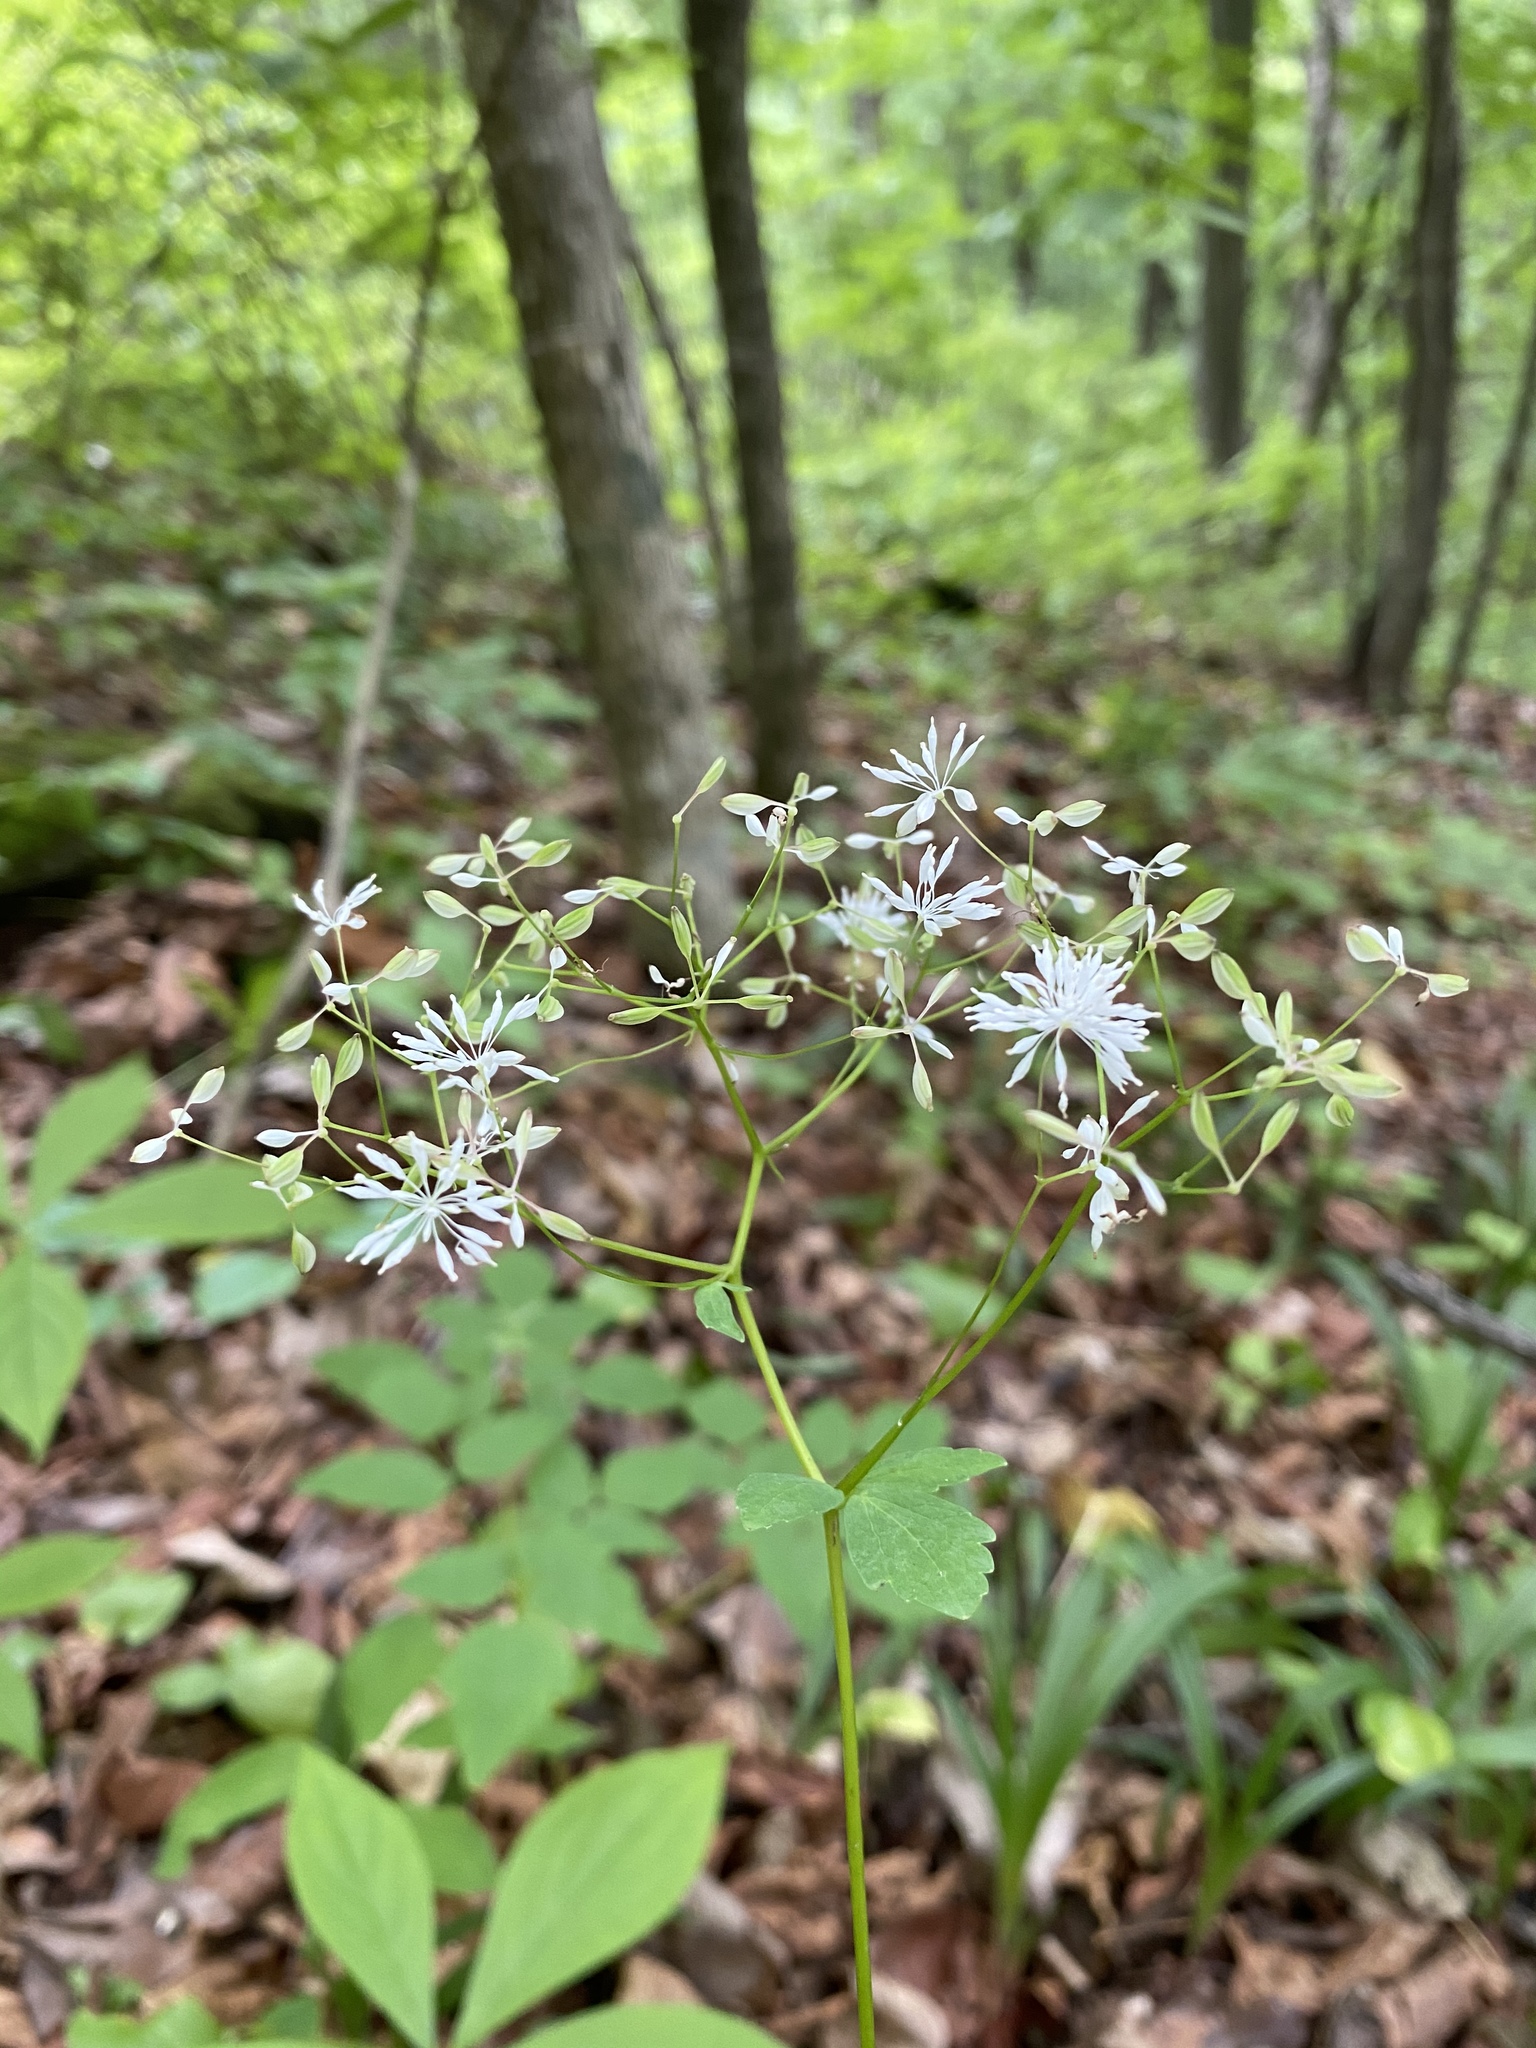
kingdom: Plantae
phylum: Tracheophyta
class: Magnoliopsida
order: Ranunculales
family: Ranunculaceae
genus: Thalictrum
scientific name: Thalictrum tuberiferum
